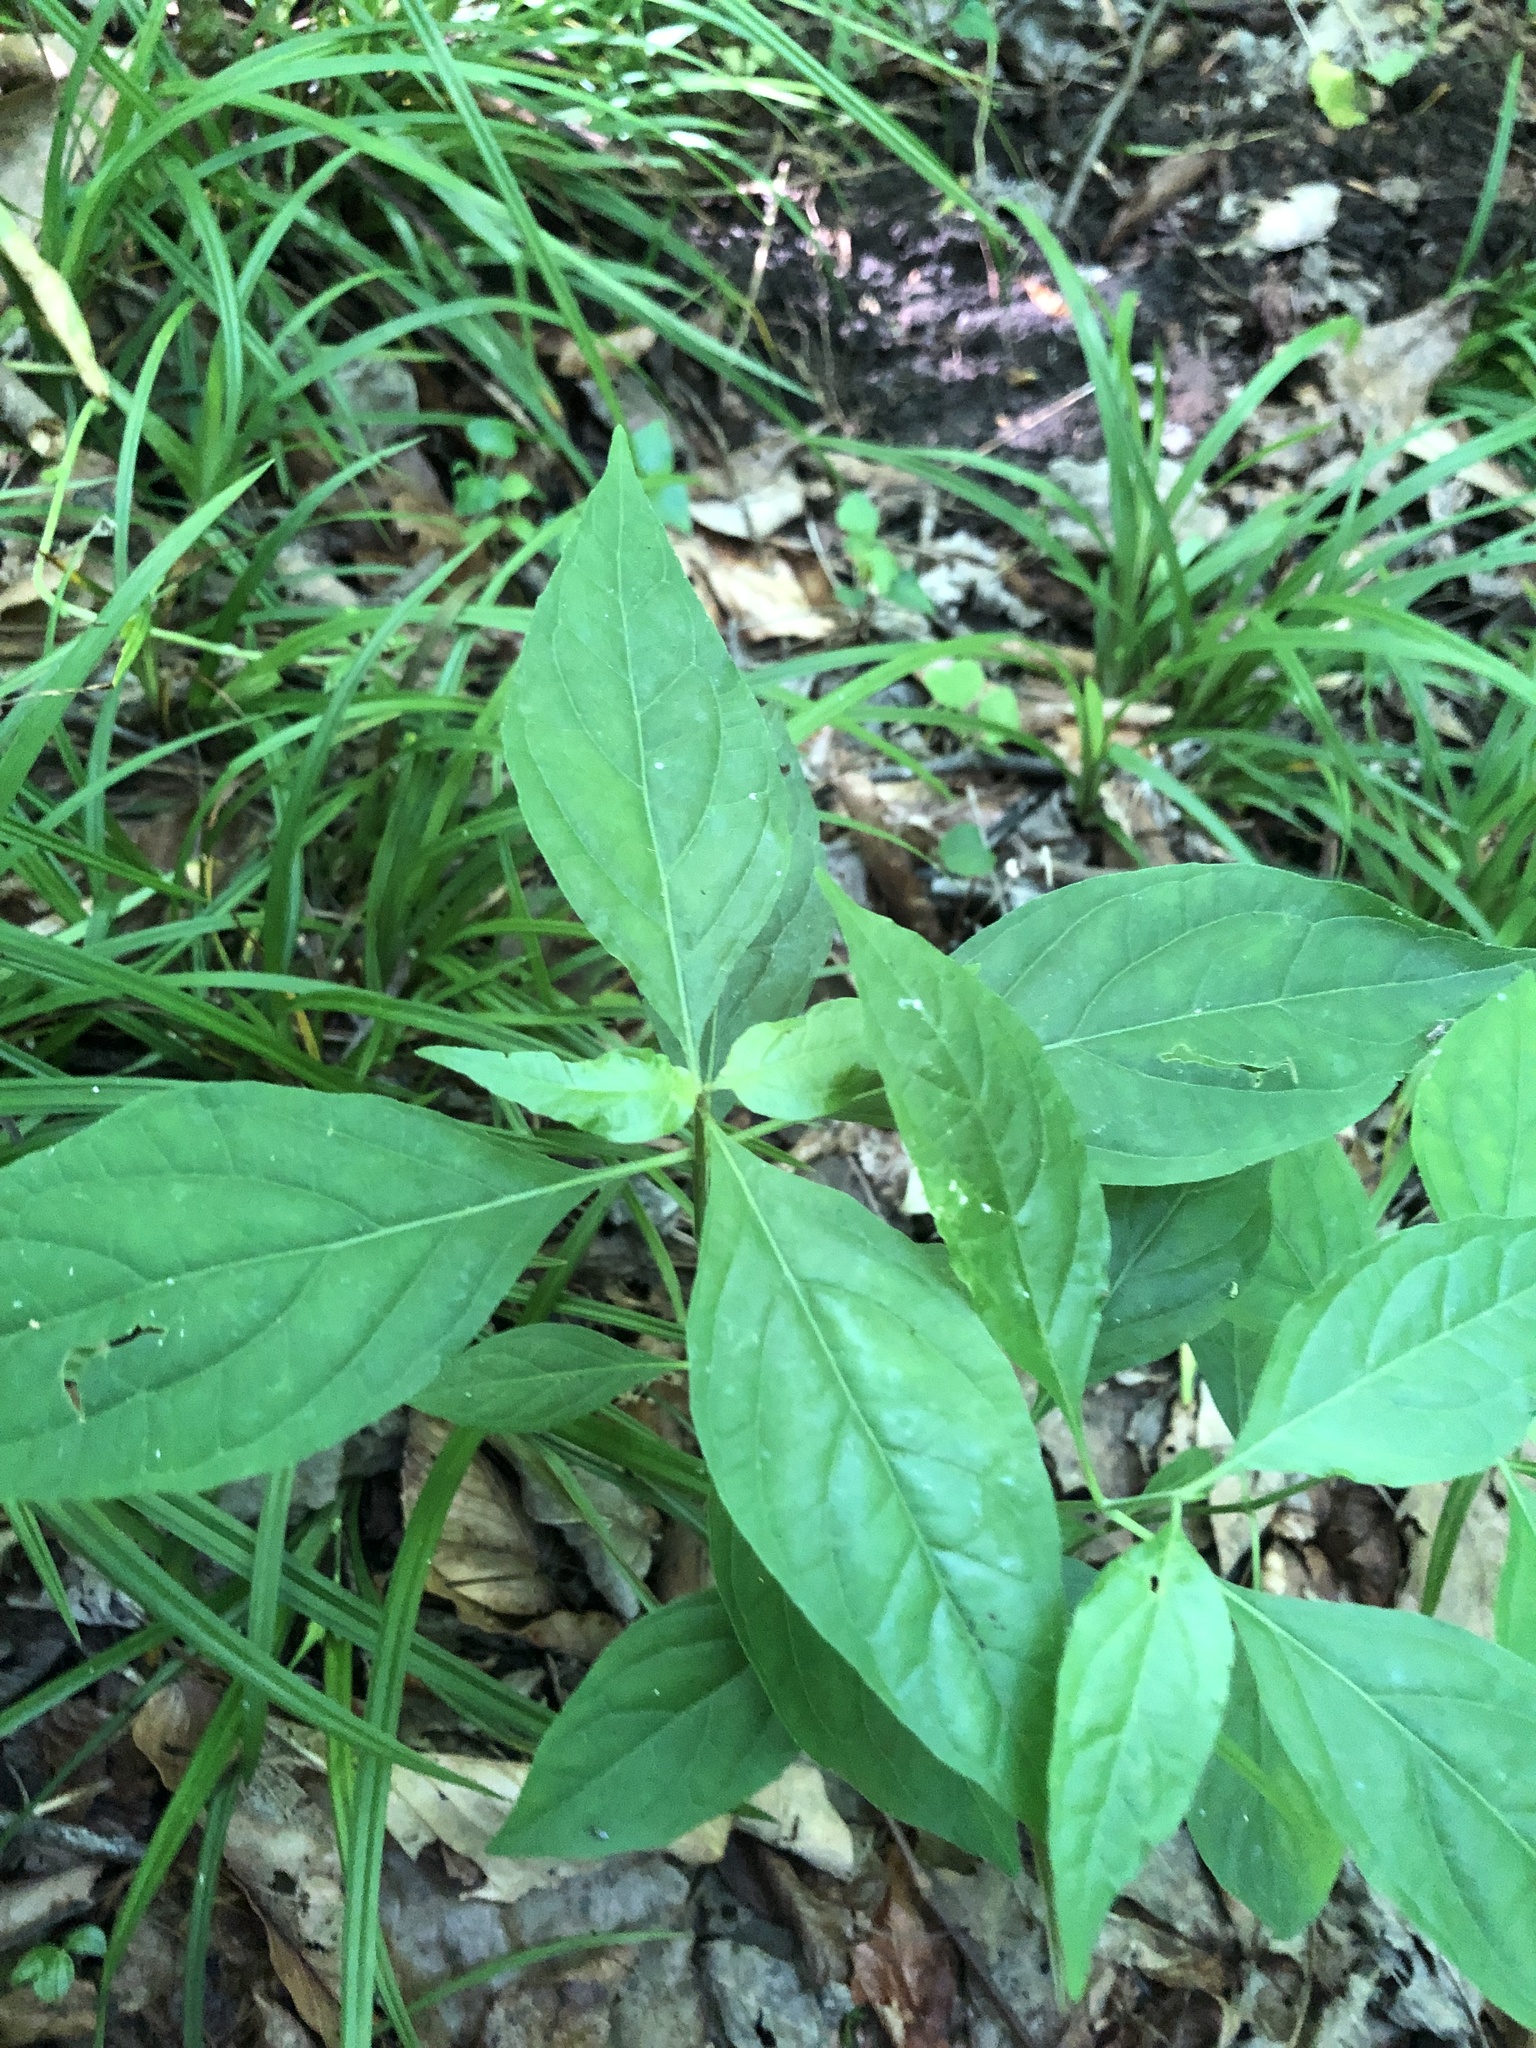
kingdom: Plantae
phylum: Tracheophyta
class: Magnoliopsida
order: Lamiales
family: Acanthaceae
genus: Yeatesia
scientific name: Yeatesia viridiflora
